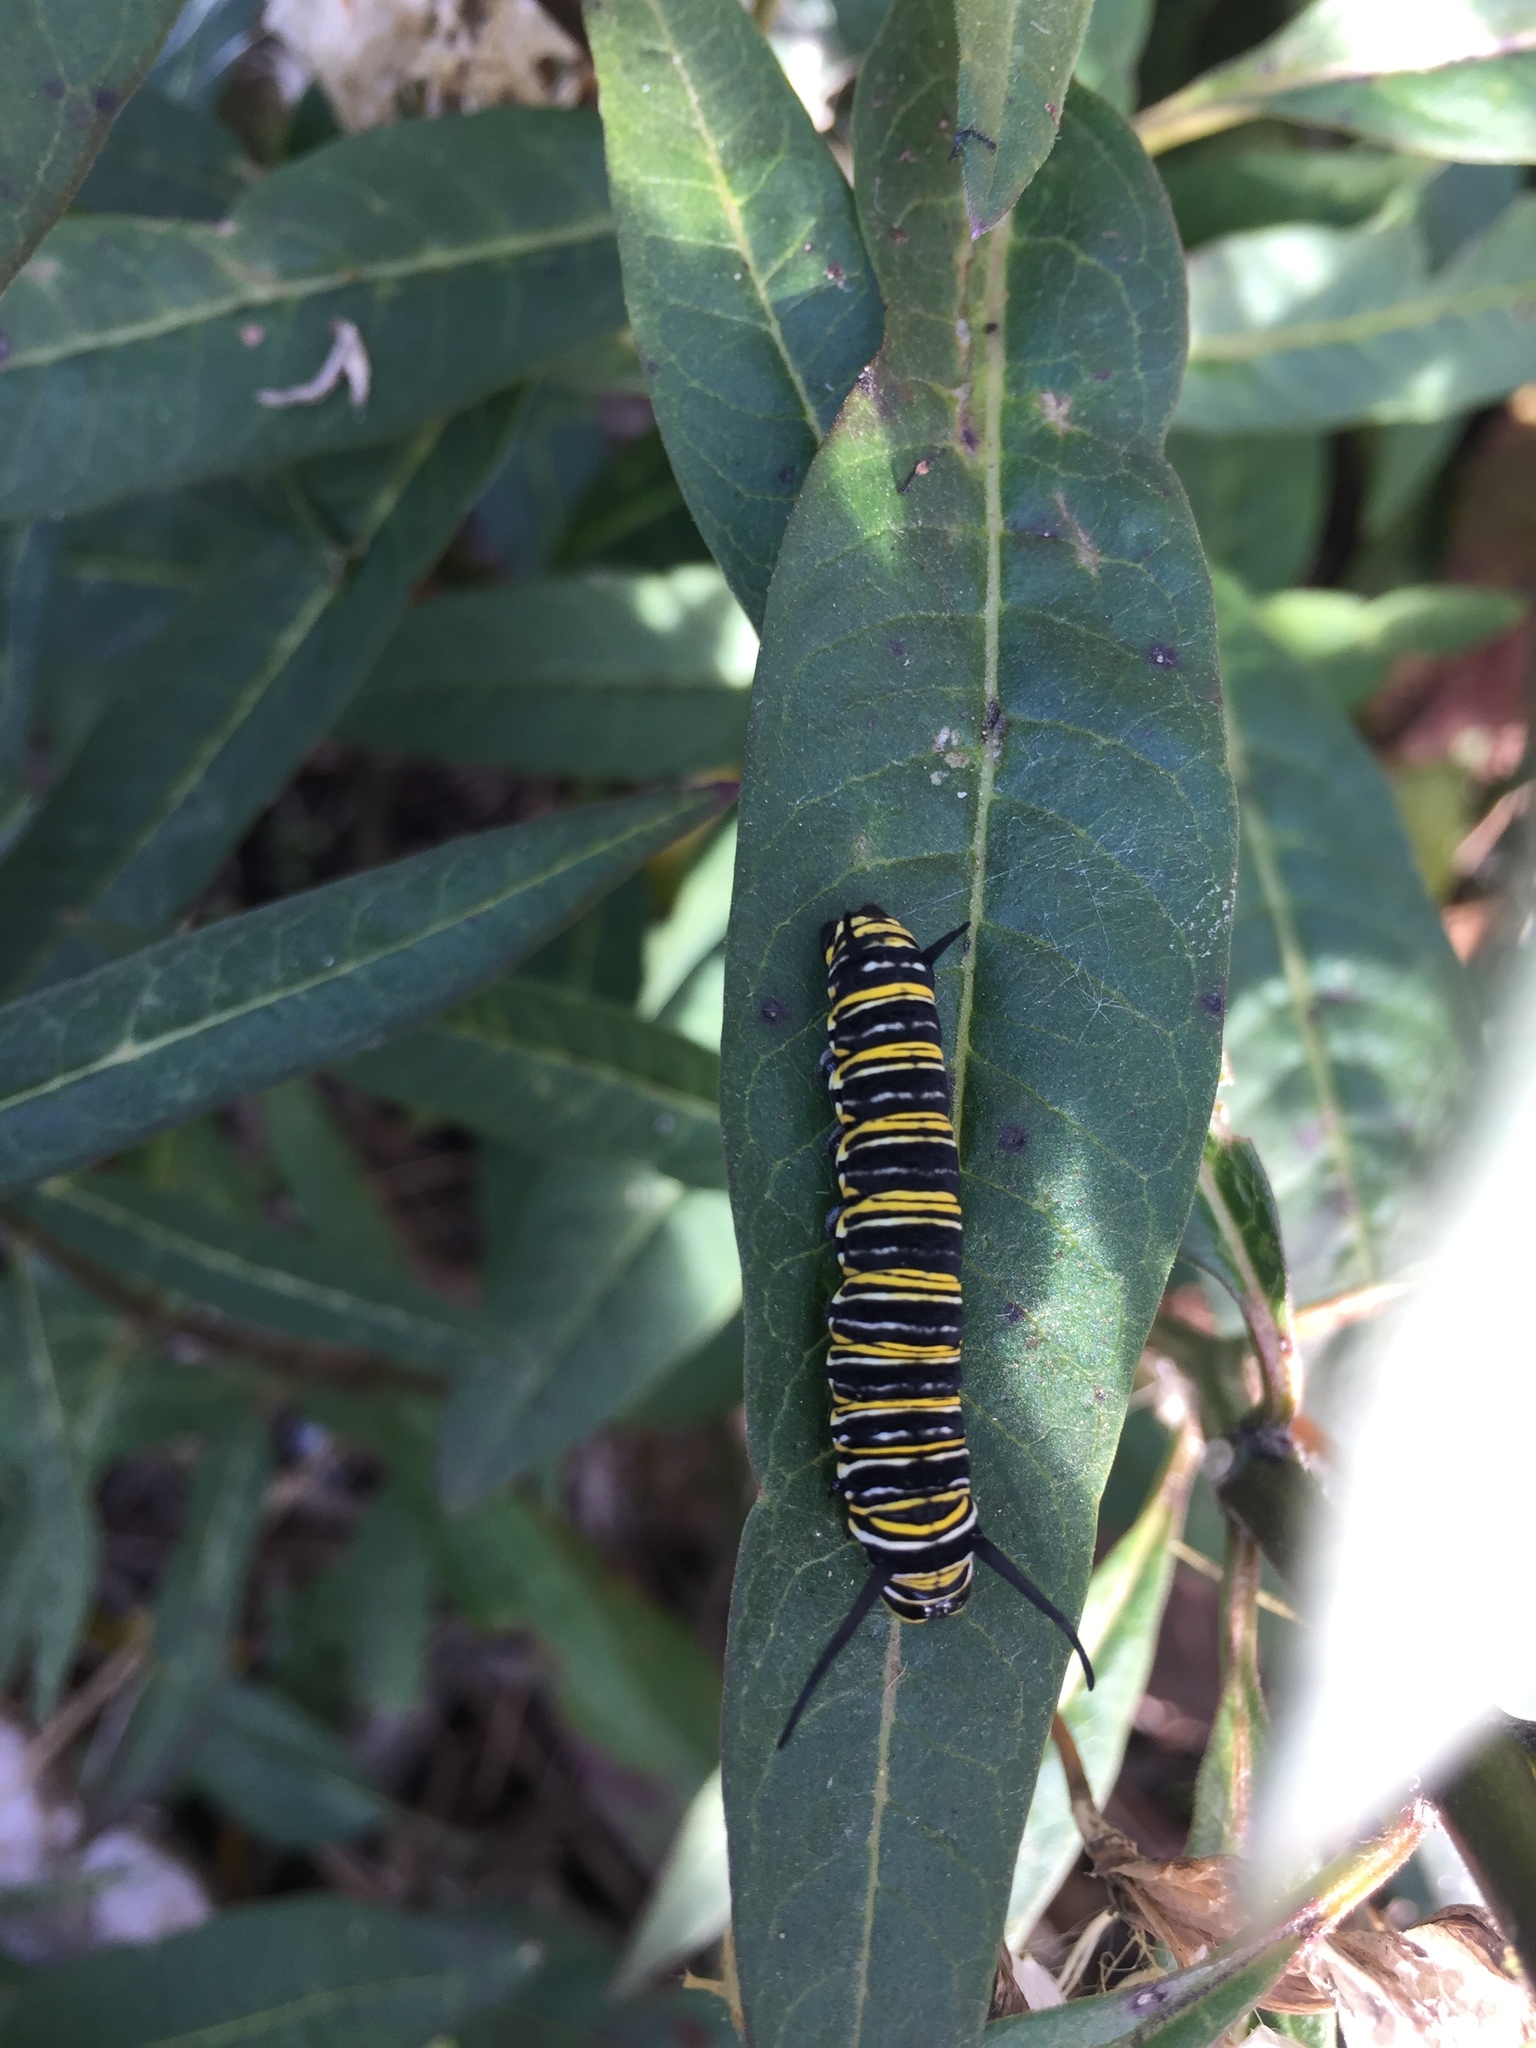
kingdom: Animalia
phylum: Arthropoda
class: Insecta
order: Lepidoptera
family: Nymphalidae
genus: Danaus
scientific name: Danaus plexippus
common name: Monarch
